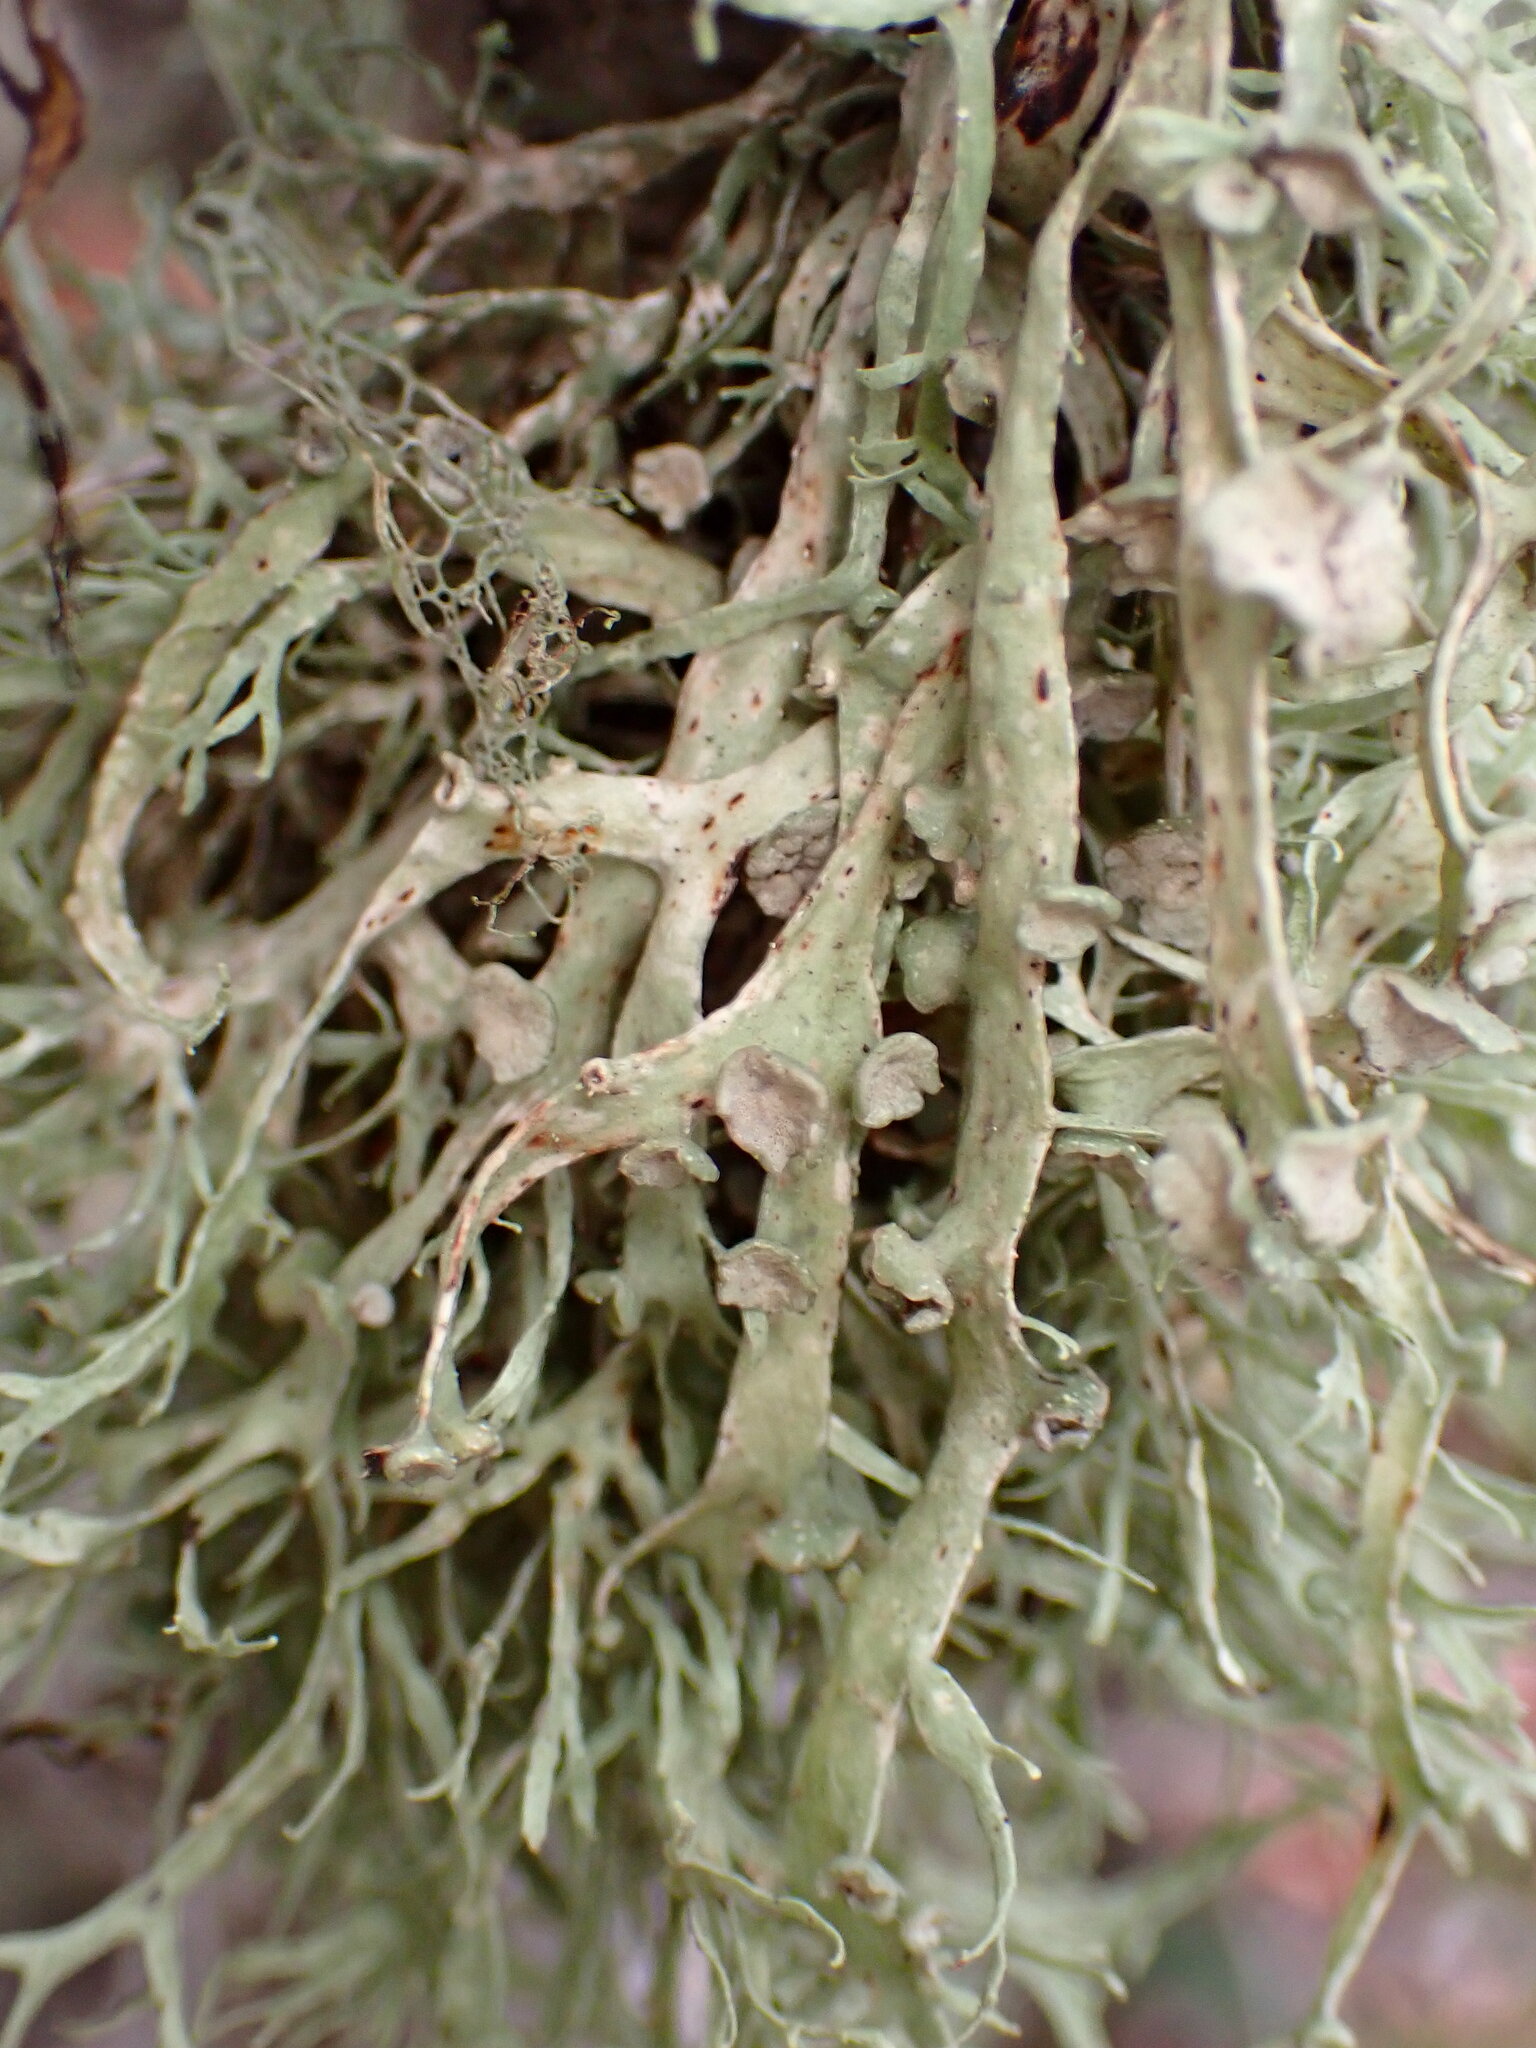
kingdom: Fungi
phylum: Ascomycota
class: Lecanoromycetes
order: Lecanorales
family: Ramalinaceae
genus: Ramalina
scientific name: Ramalina leptocarpha
